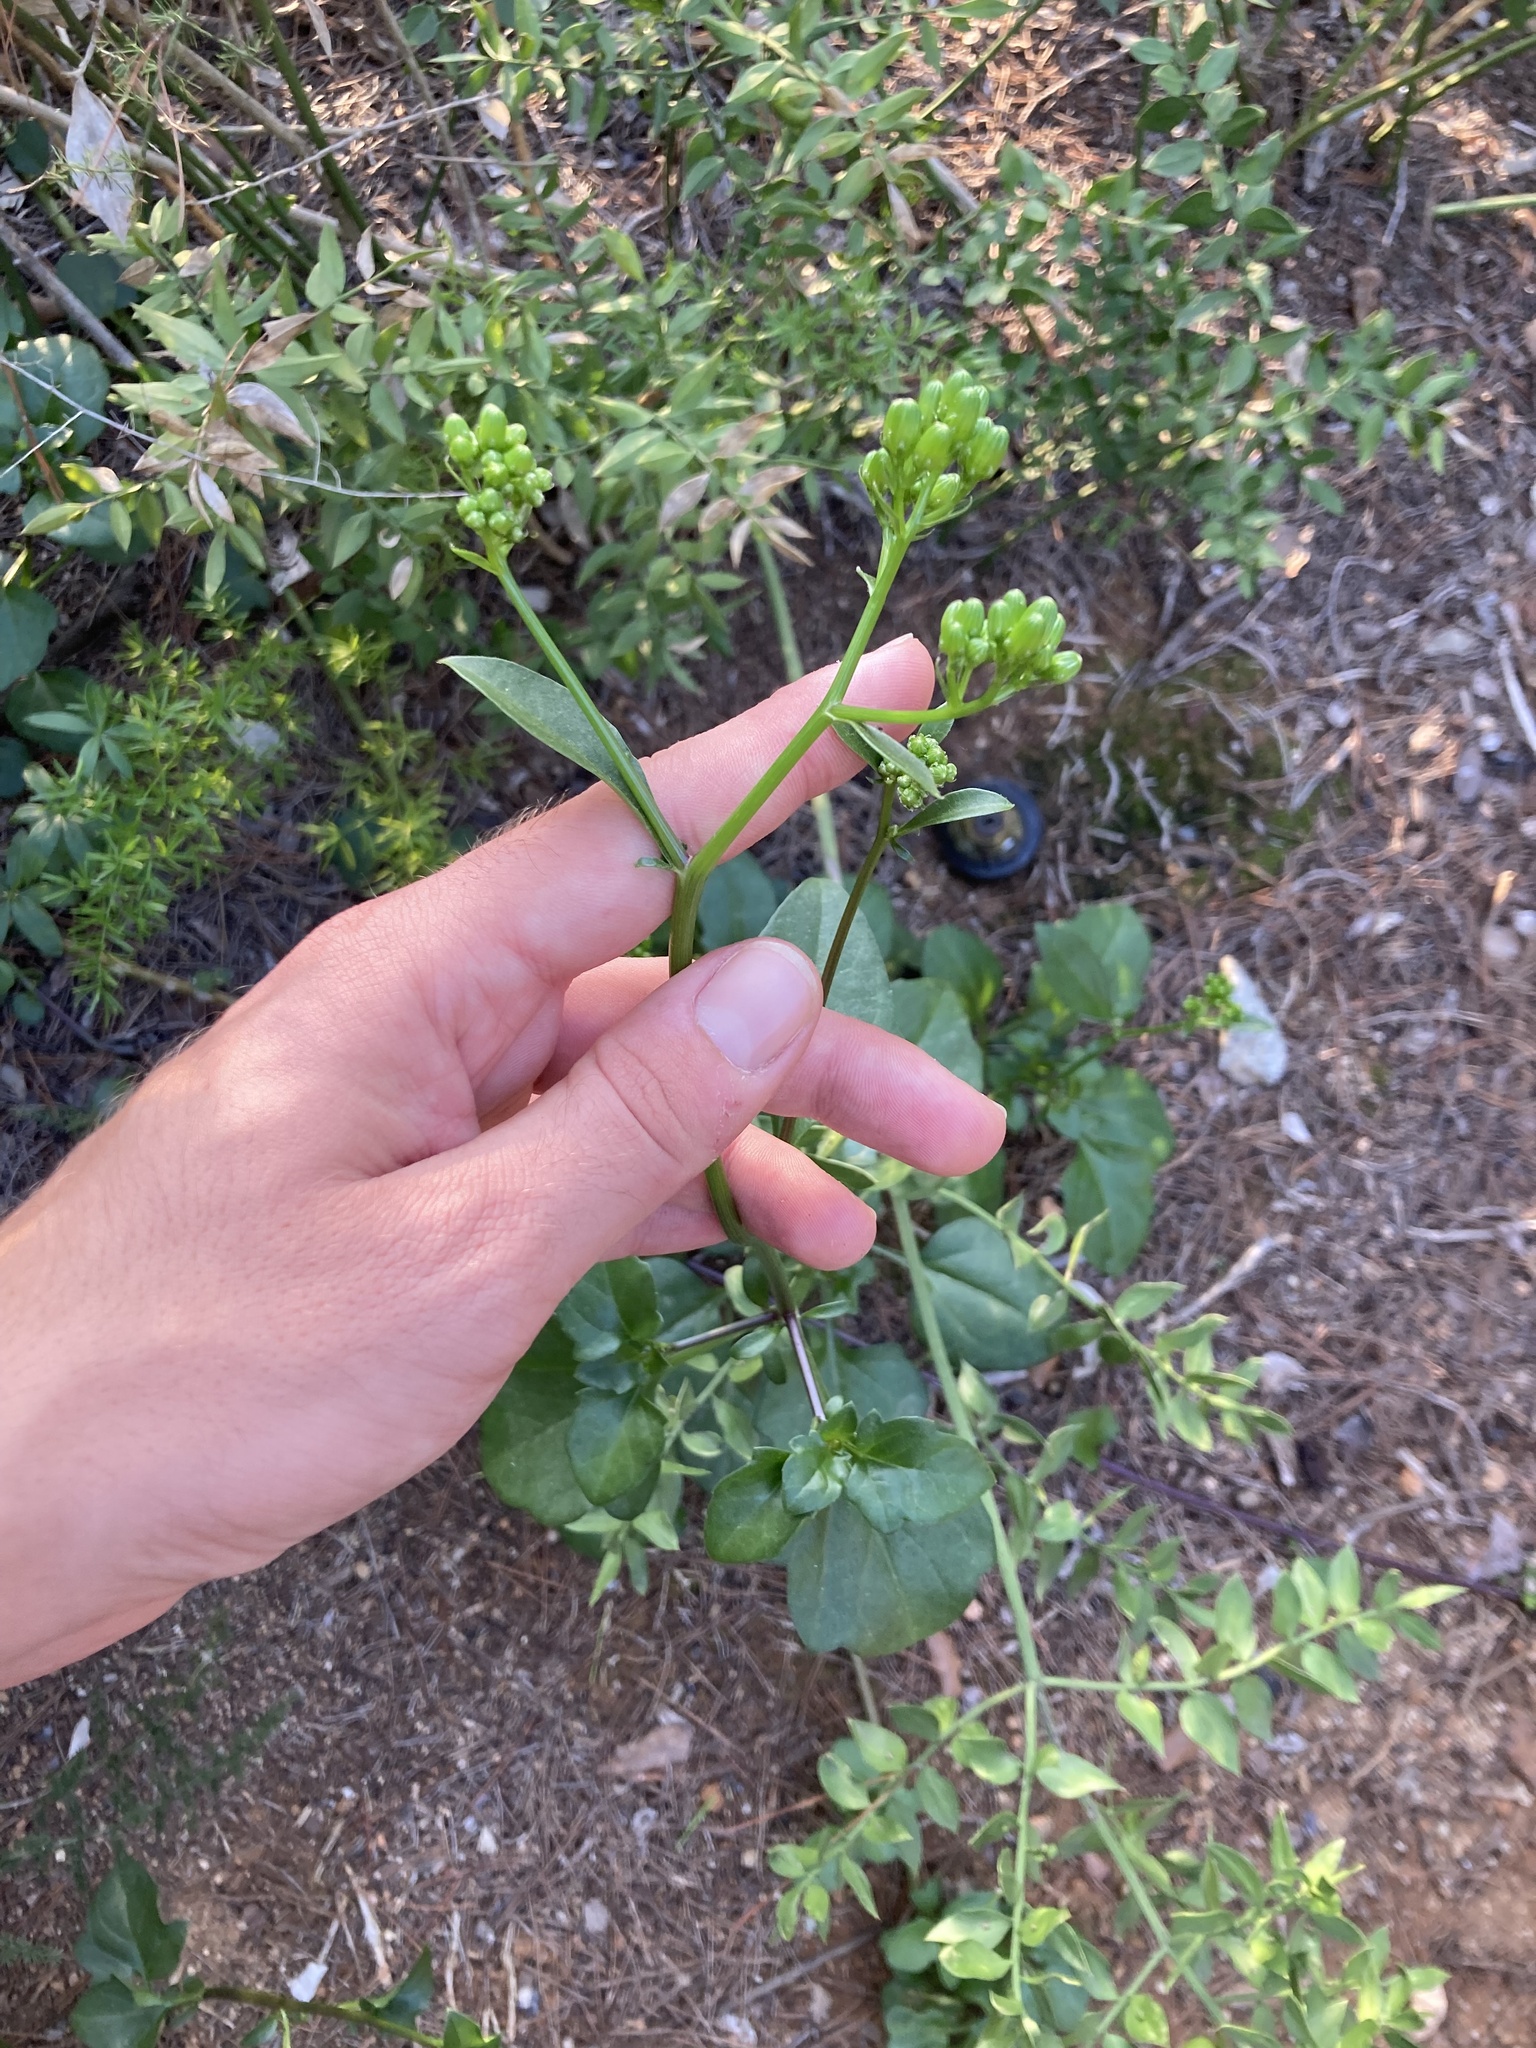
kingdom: Plantae
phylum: Tracheophyta
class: Magnoliopsida
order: Asterales
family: Asteraceae
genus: Senecio
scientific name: Senecio angulatus
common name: Climbing groundsel
